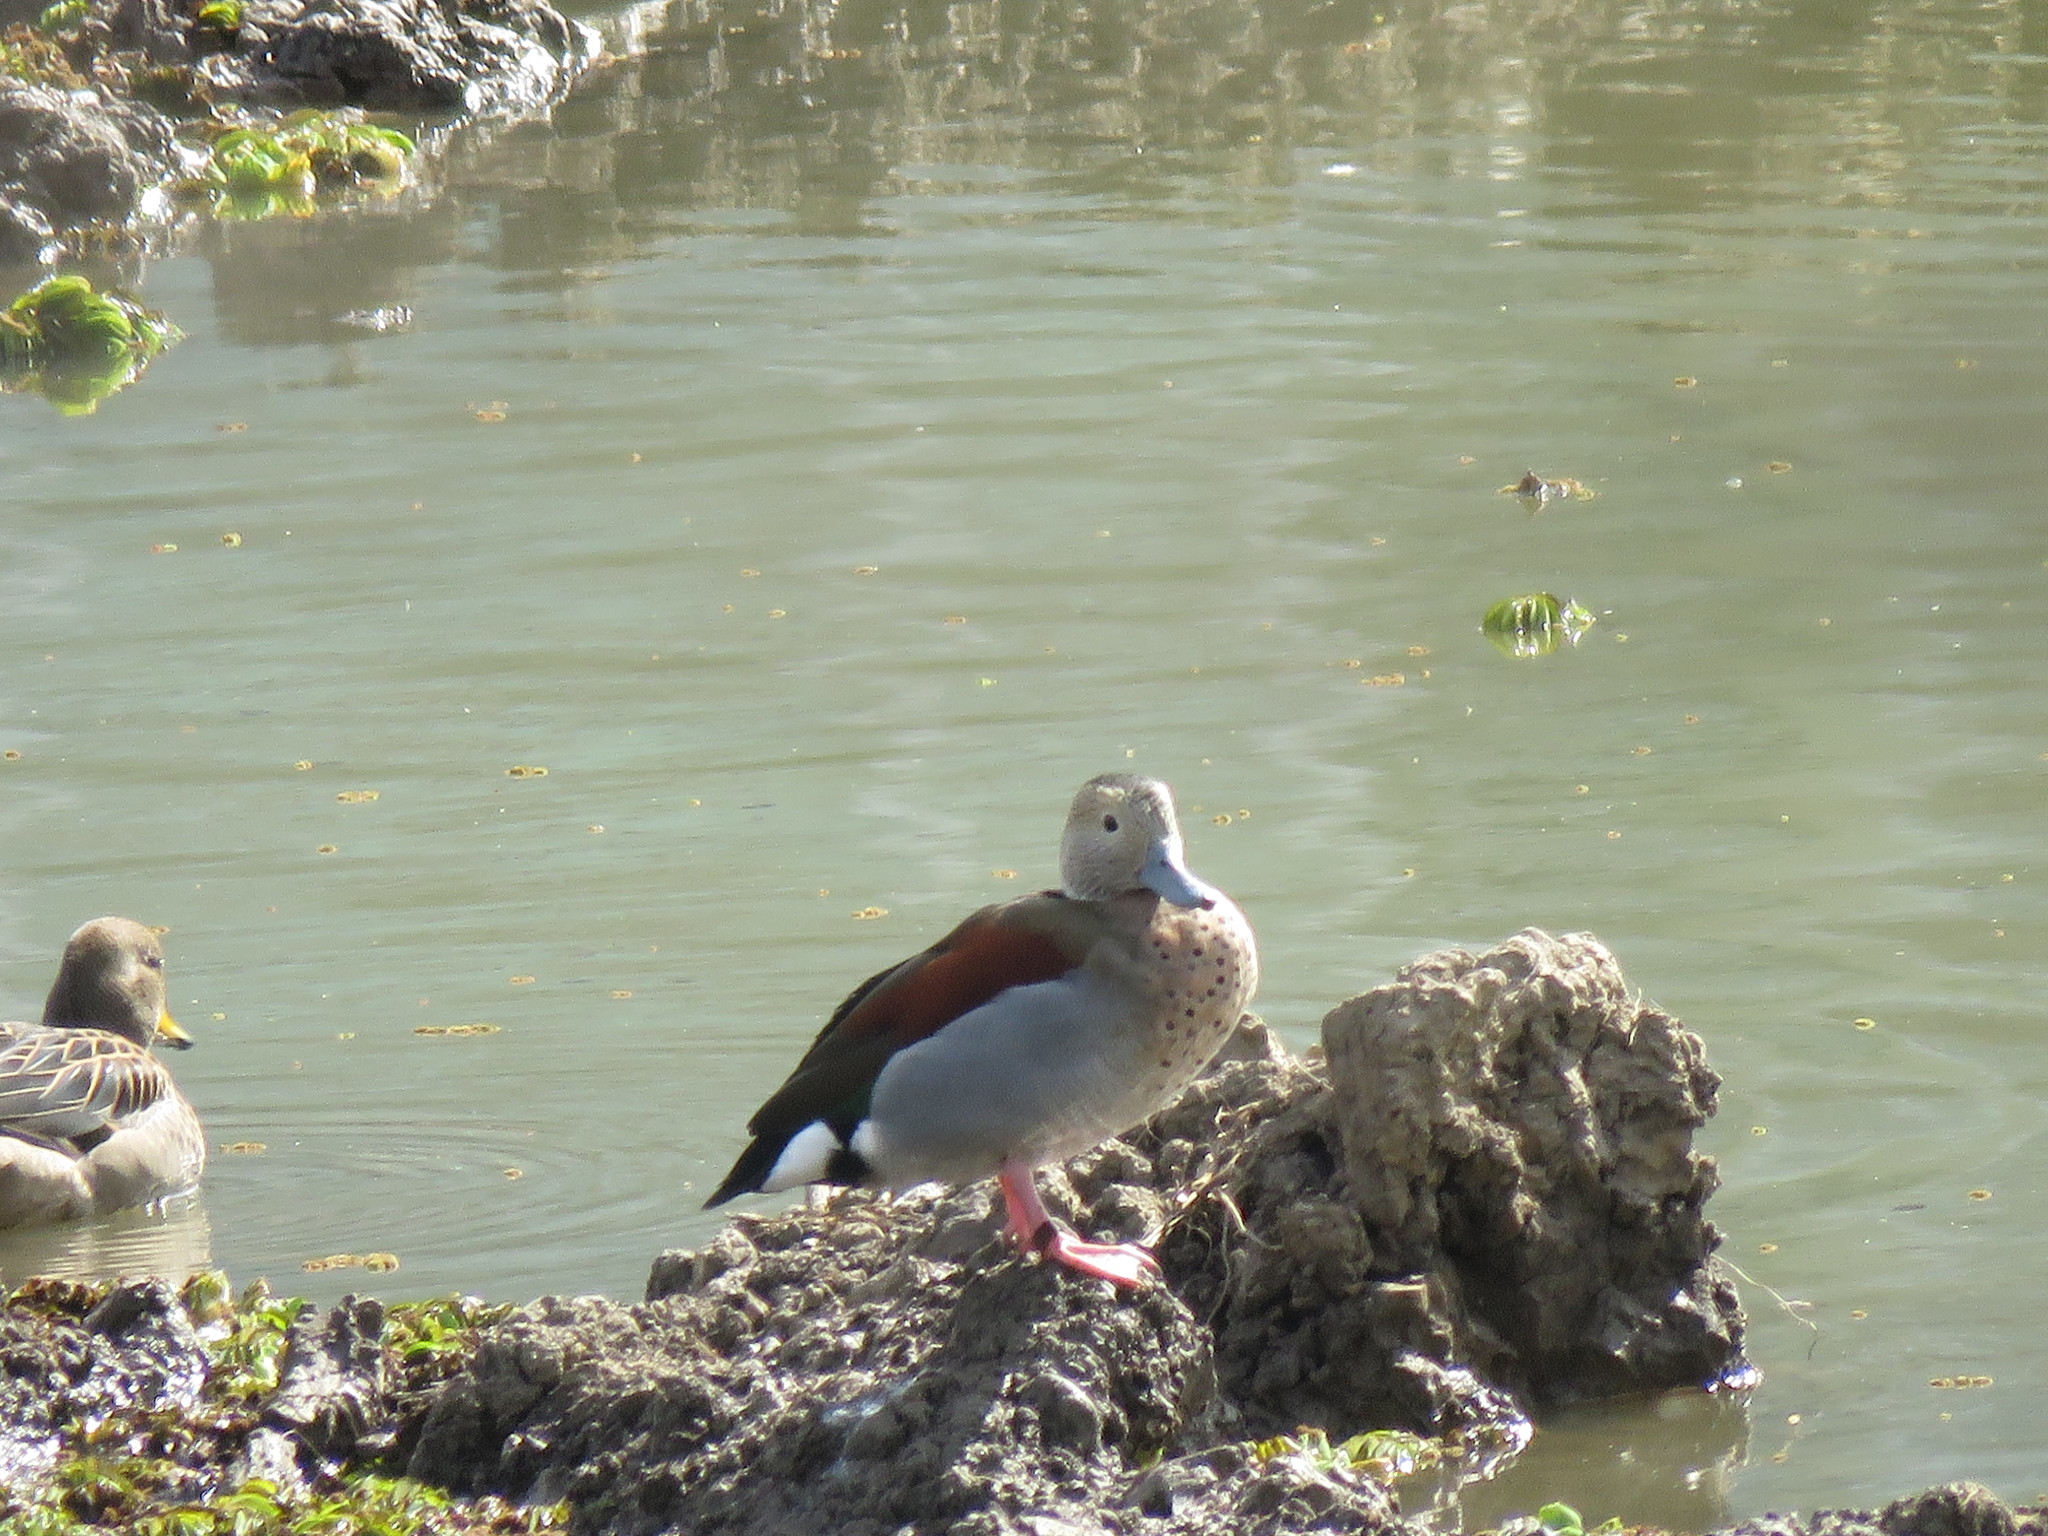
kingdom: Animalia
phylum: Chordata
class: Aves
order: Anseriformes
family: Anatidae
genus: Callonetta
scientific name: Callonetta leucophrys
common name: Ringed teal
